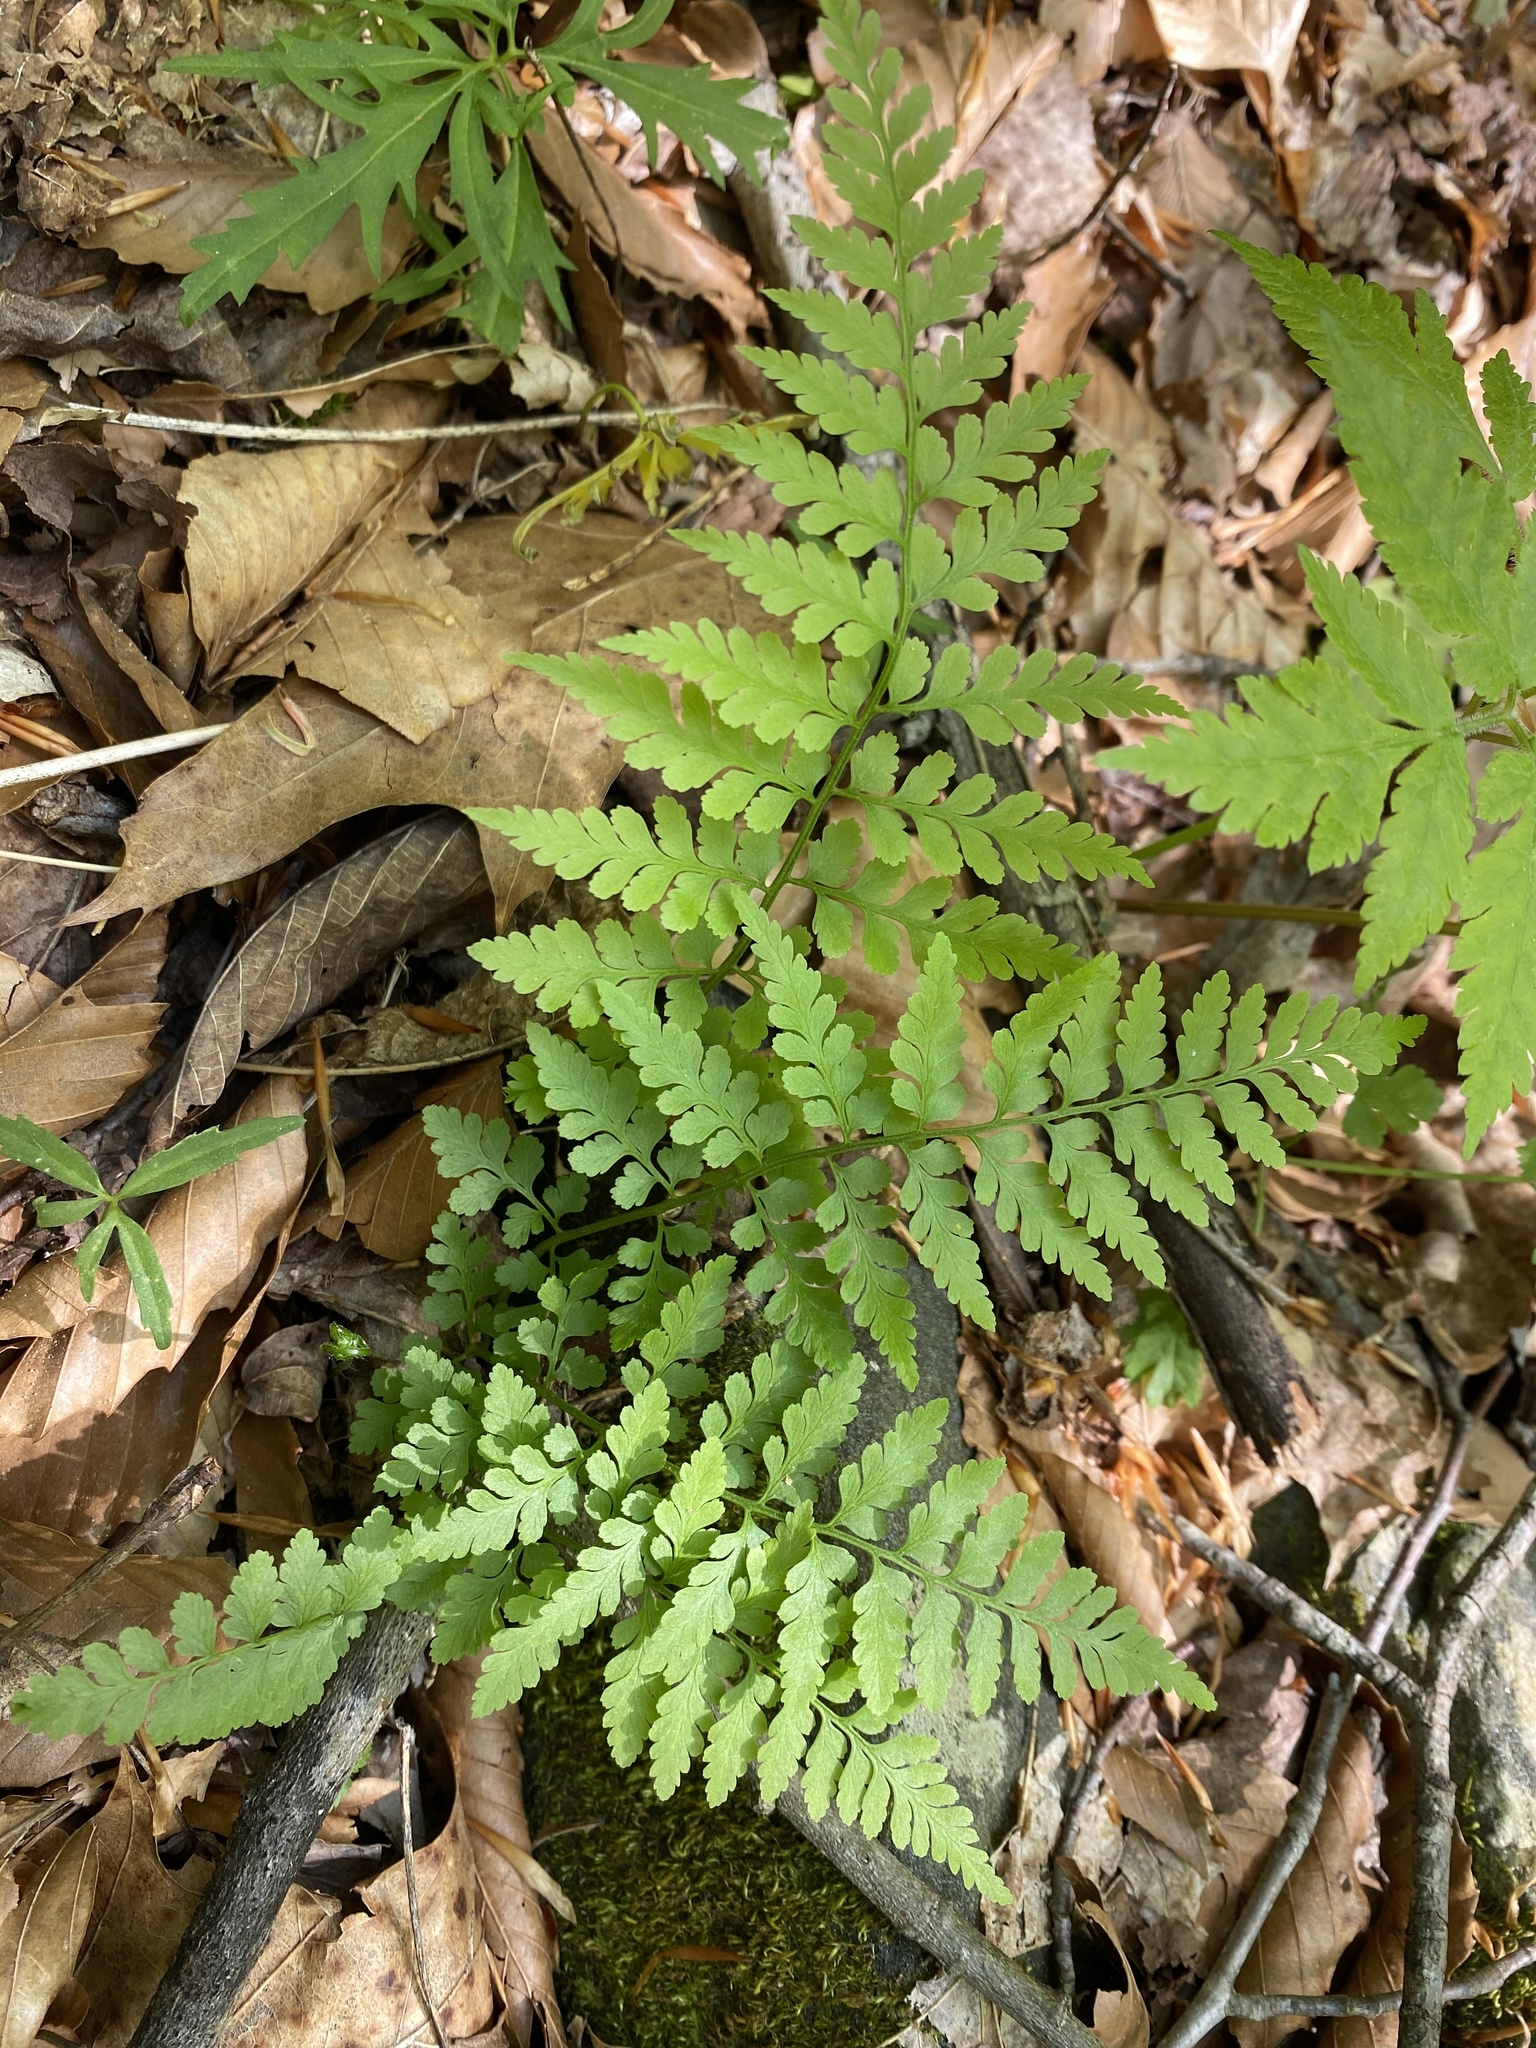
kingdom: Plantae
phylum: Tracheophyta
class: Polypodiopsida
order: Polypodiales
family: Cystopteridaceae
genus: Cystopteris
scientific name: Cystopteris protrusa
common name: Lowland brittle fern
